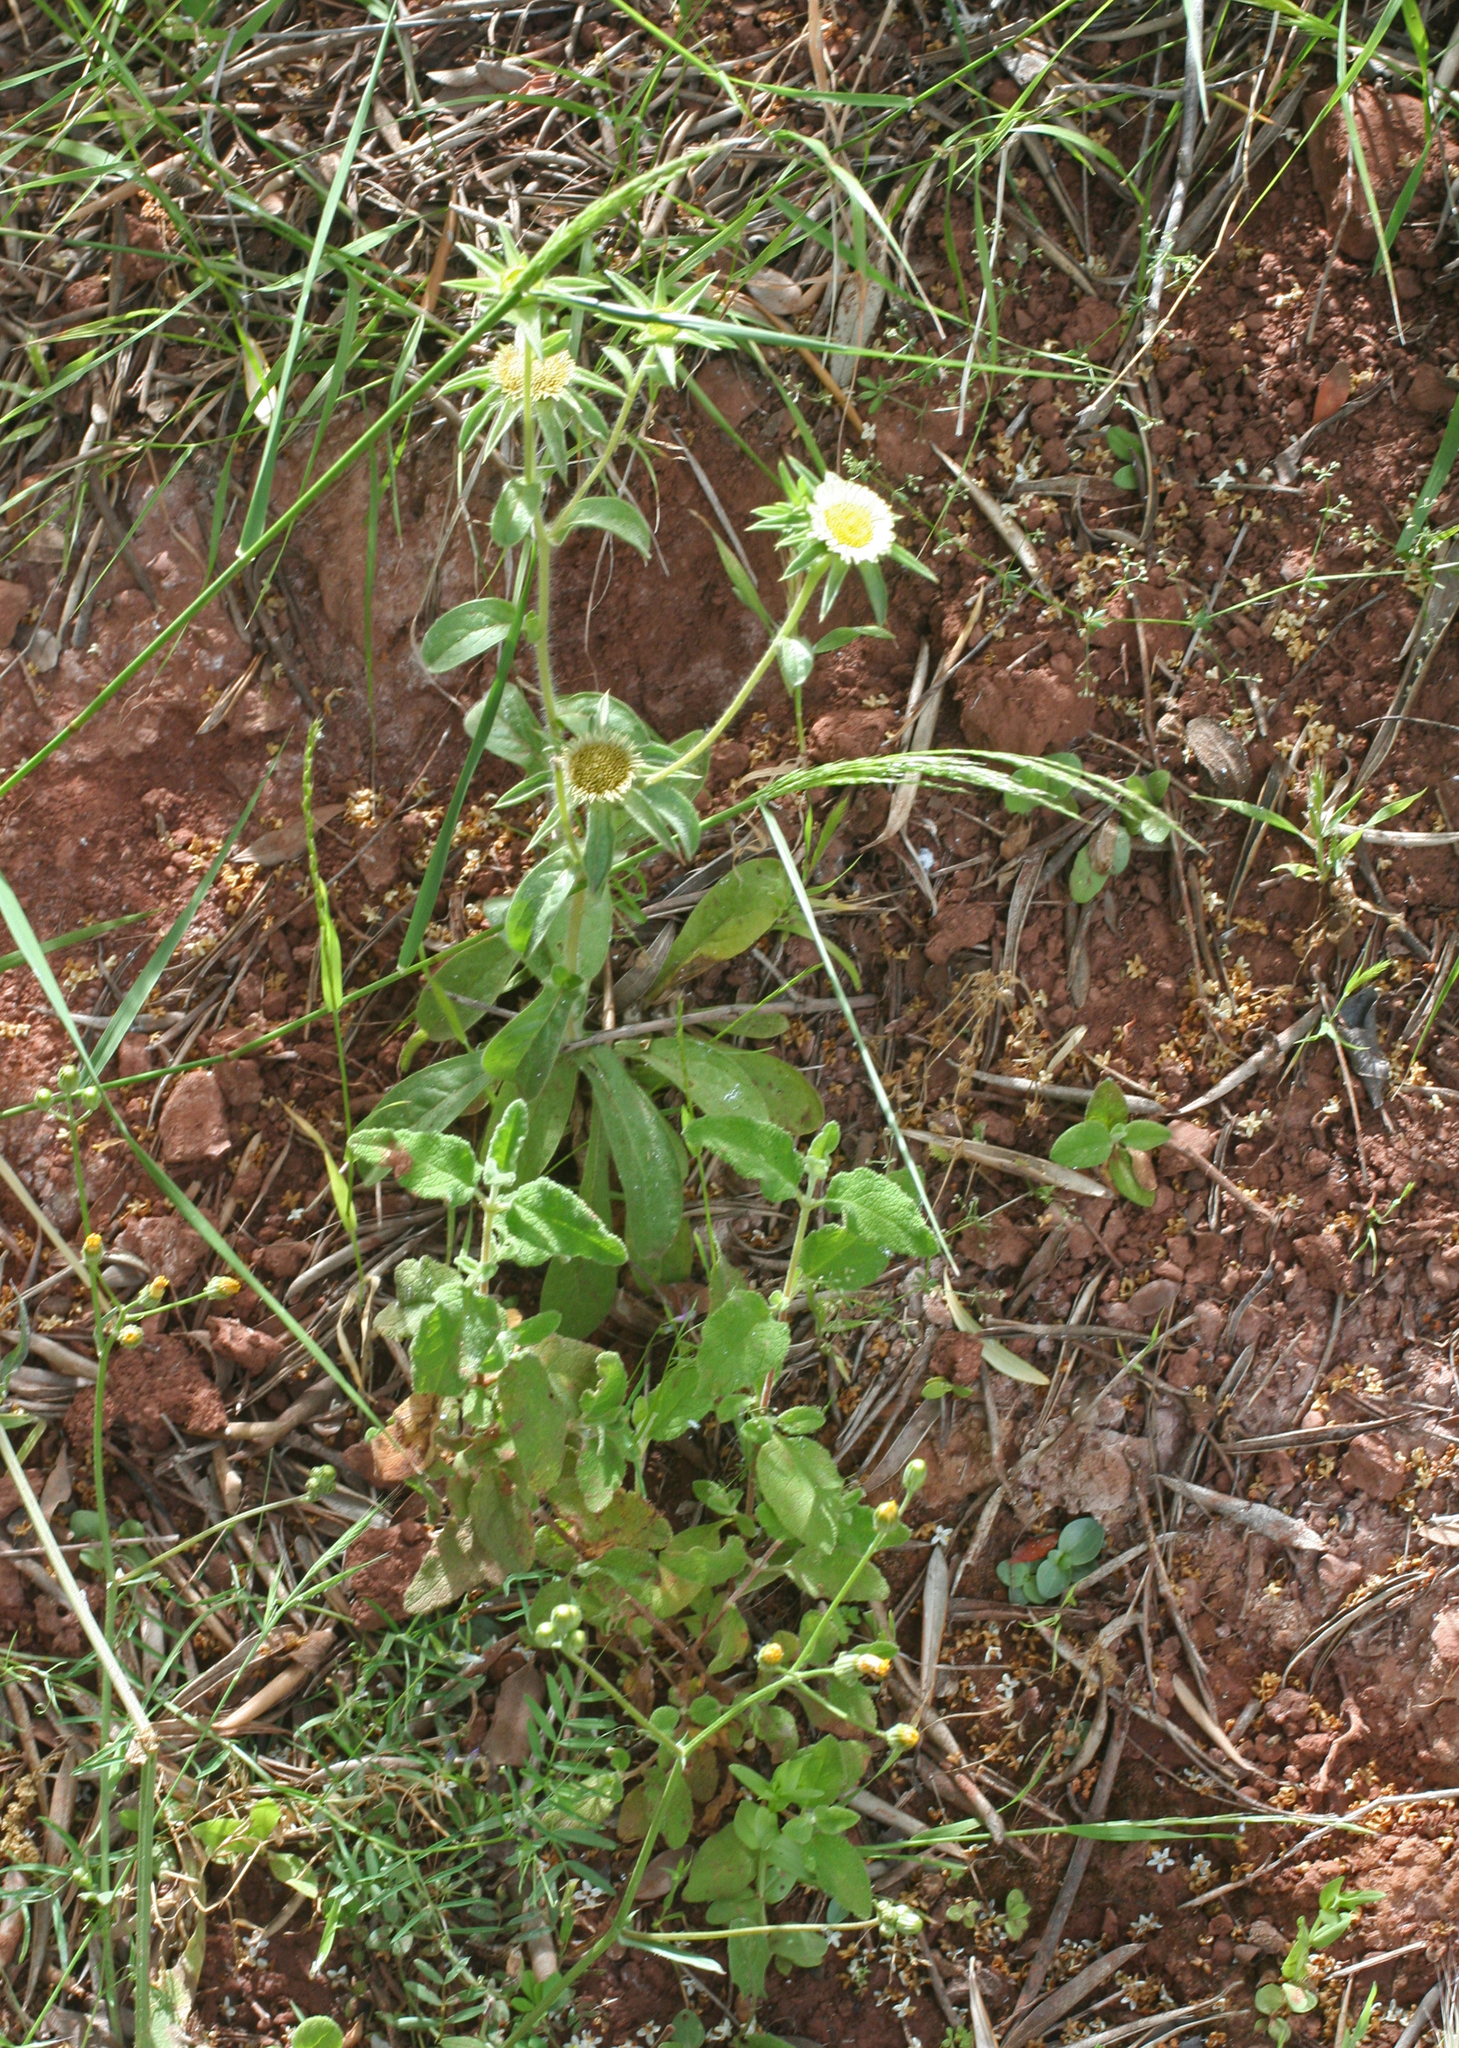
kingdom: Plantae
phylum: Tracheophyta
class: Magnoliopsida
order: Asterales
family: Asteraceae
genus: Pallenis
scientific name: Pallenis spinosa
